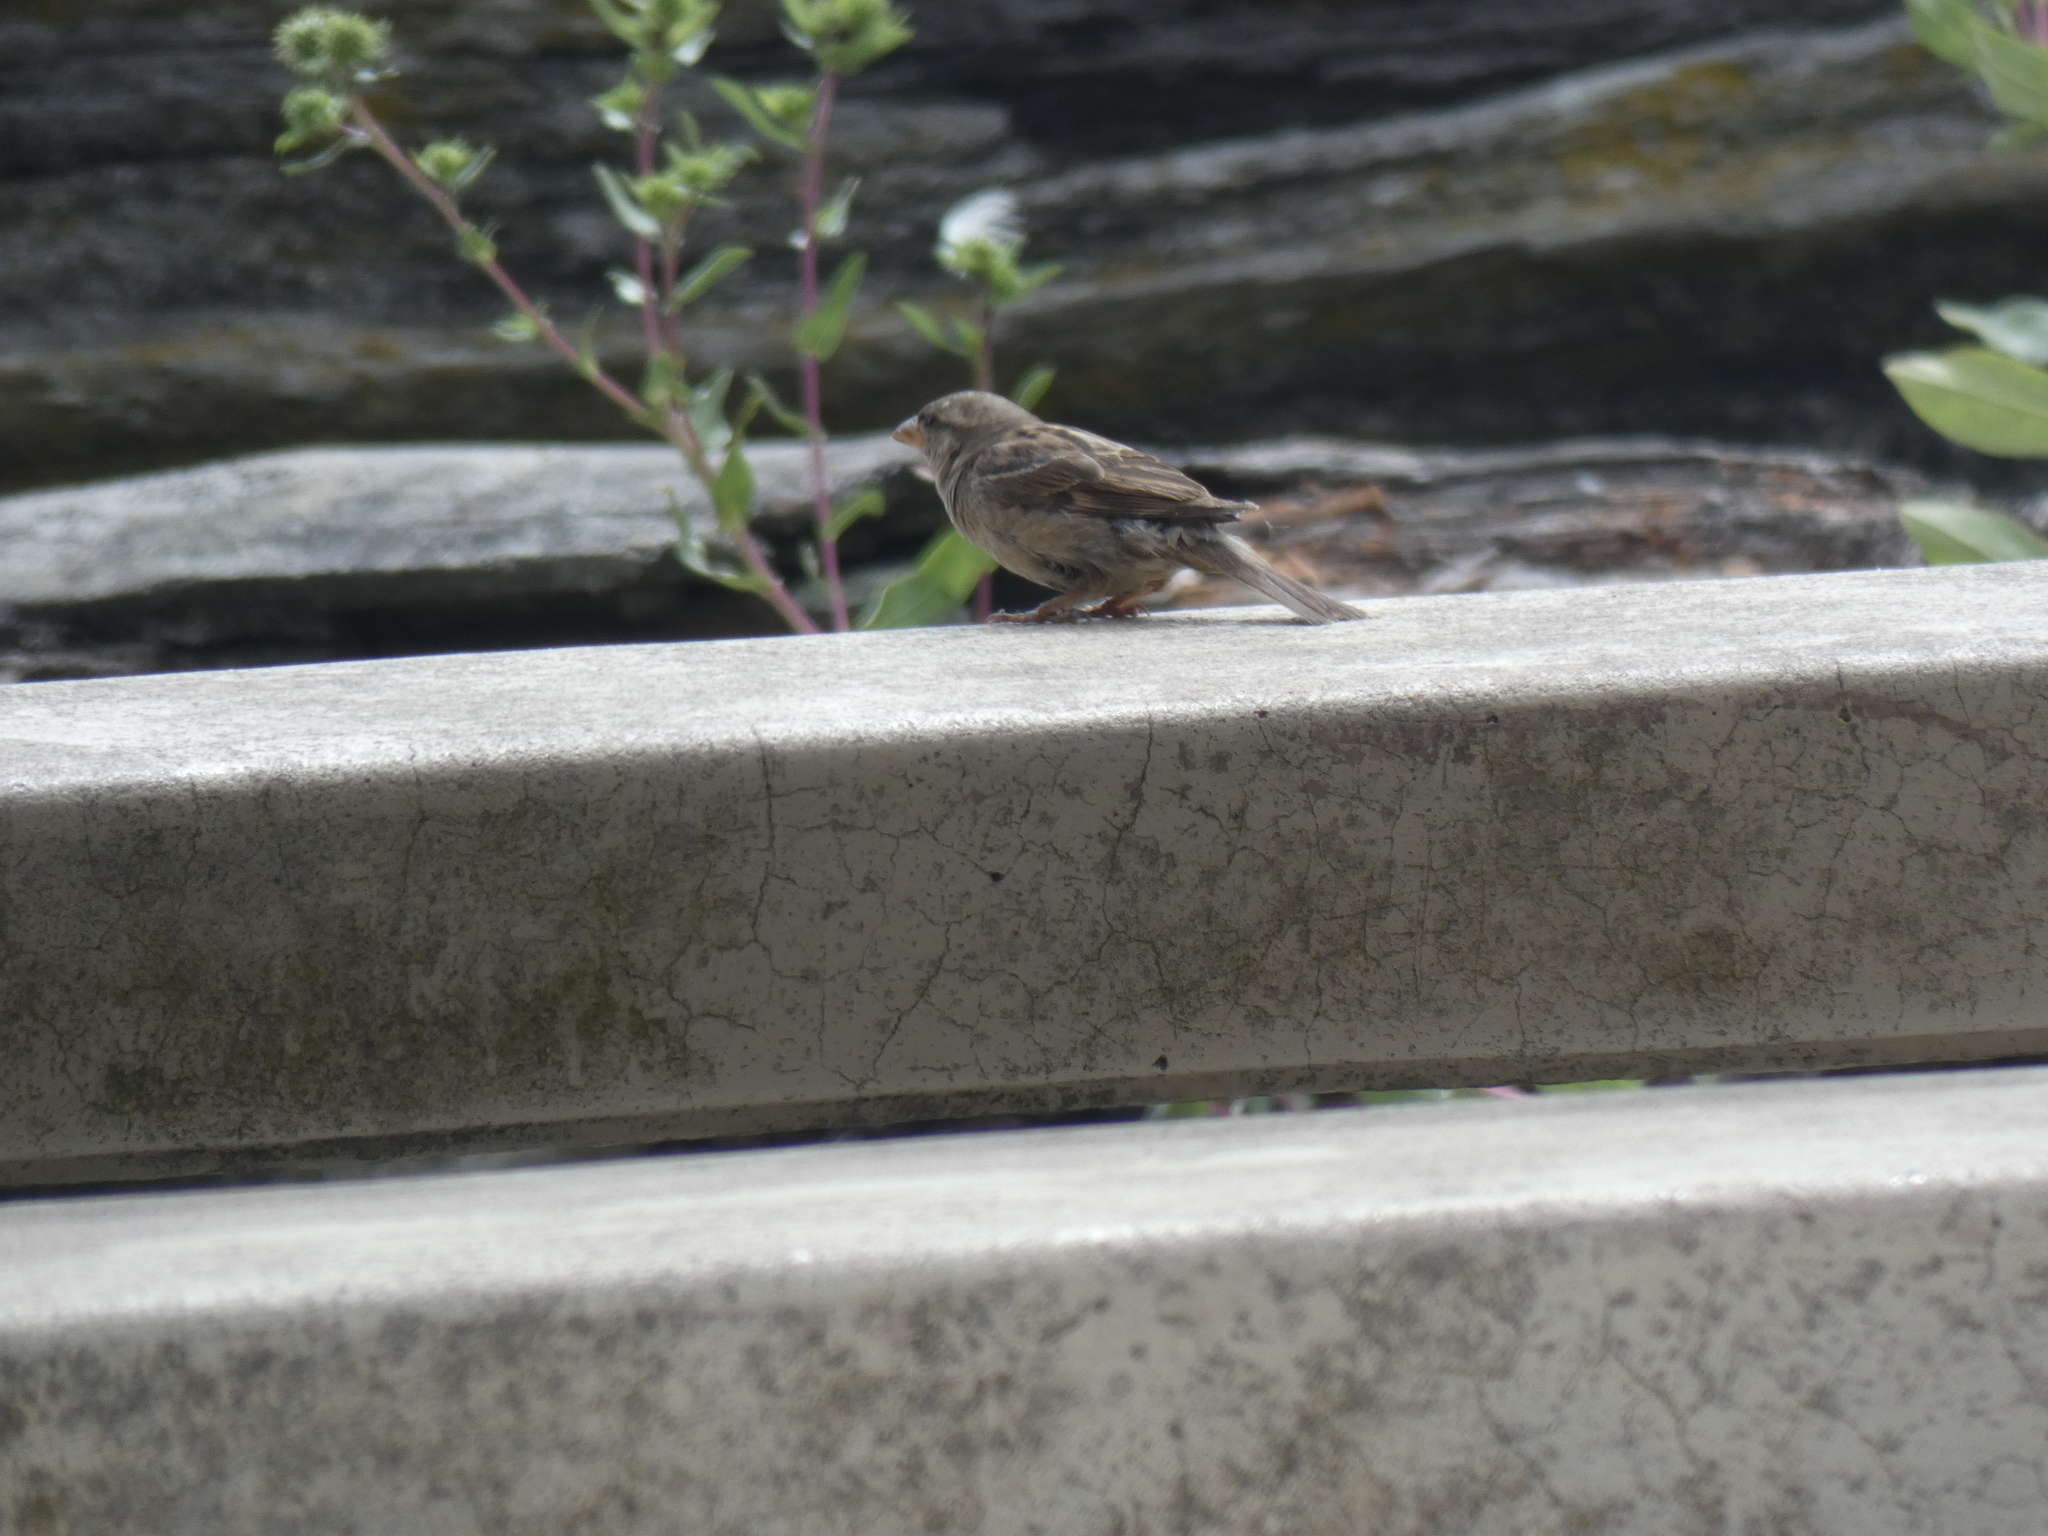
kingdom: Animalia
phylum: Chordata
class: Aves
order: Passeriformes
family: Passeridae
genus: Passer
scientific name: Passer domesticus
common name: House sparrow
